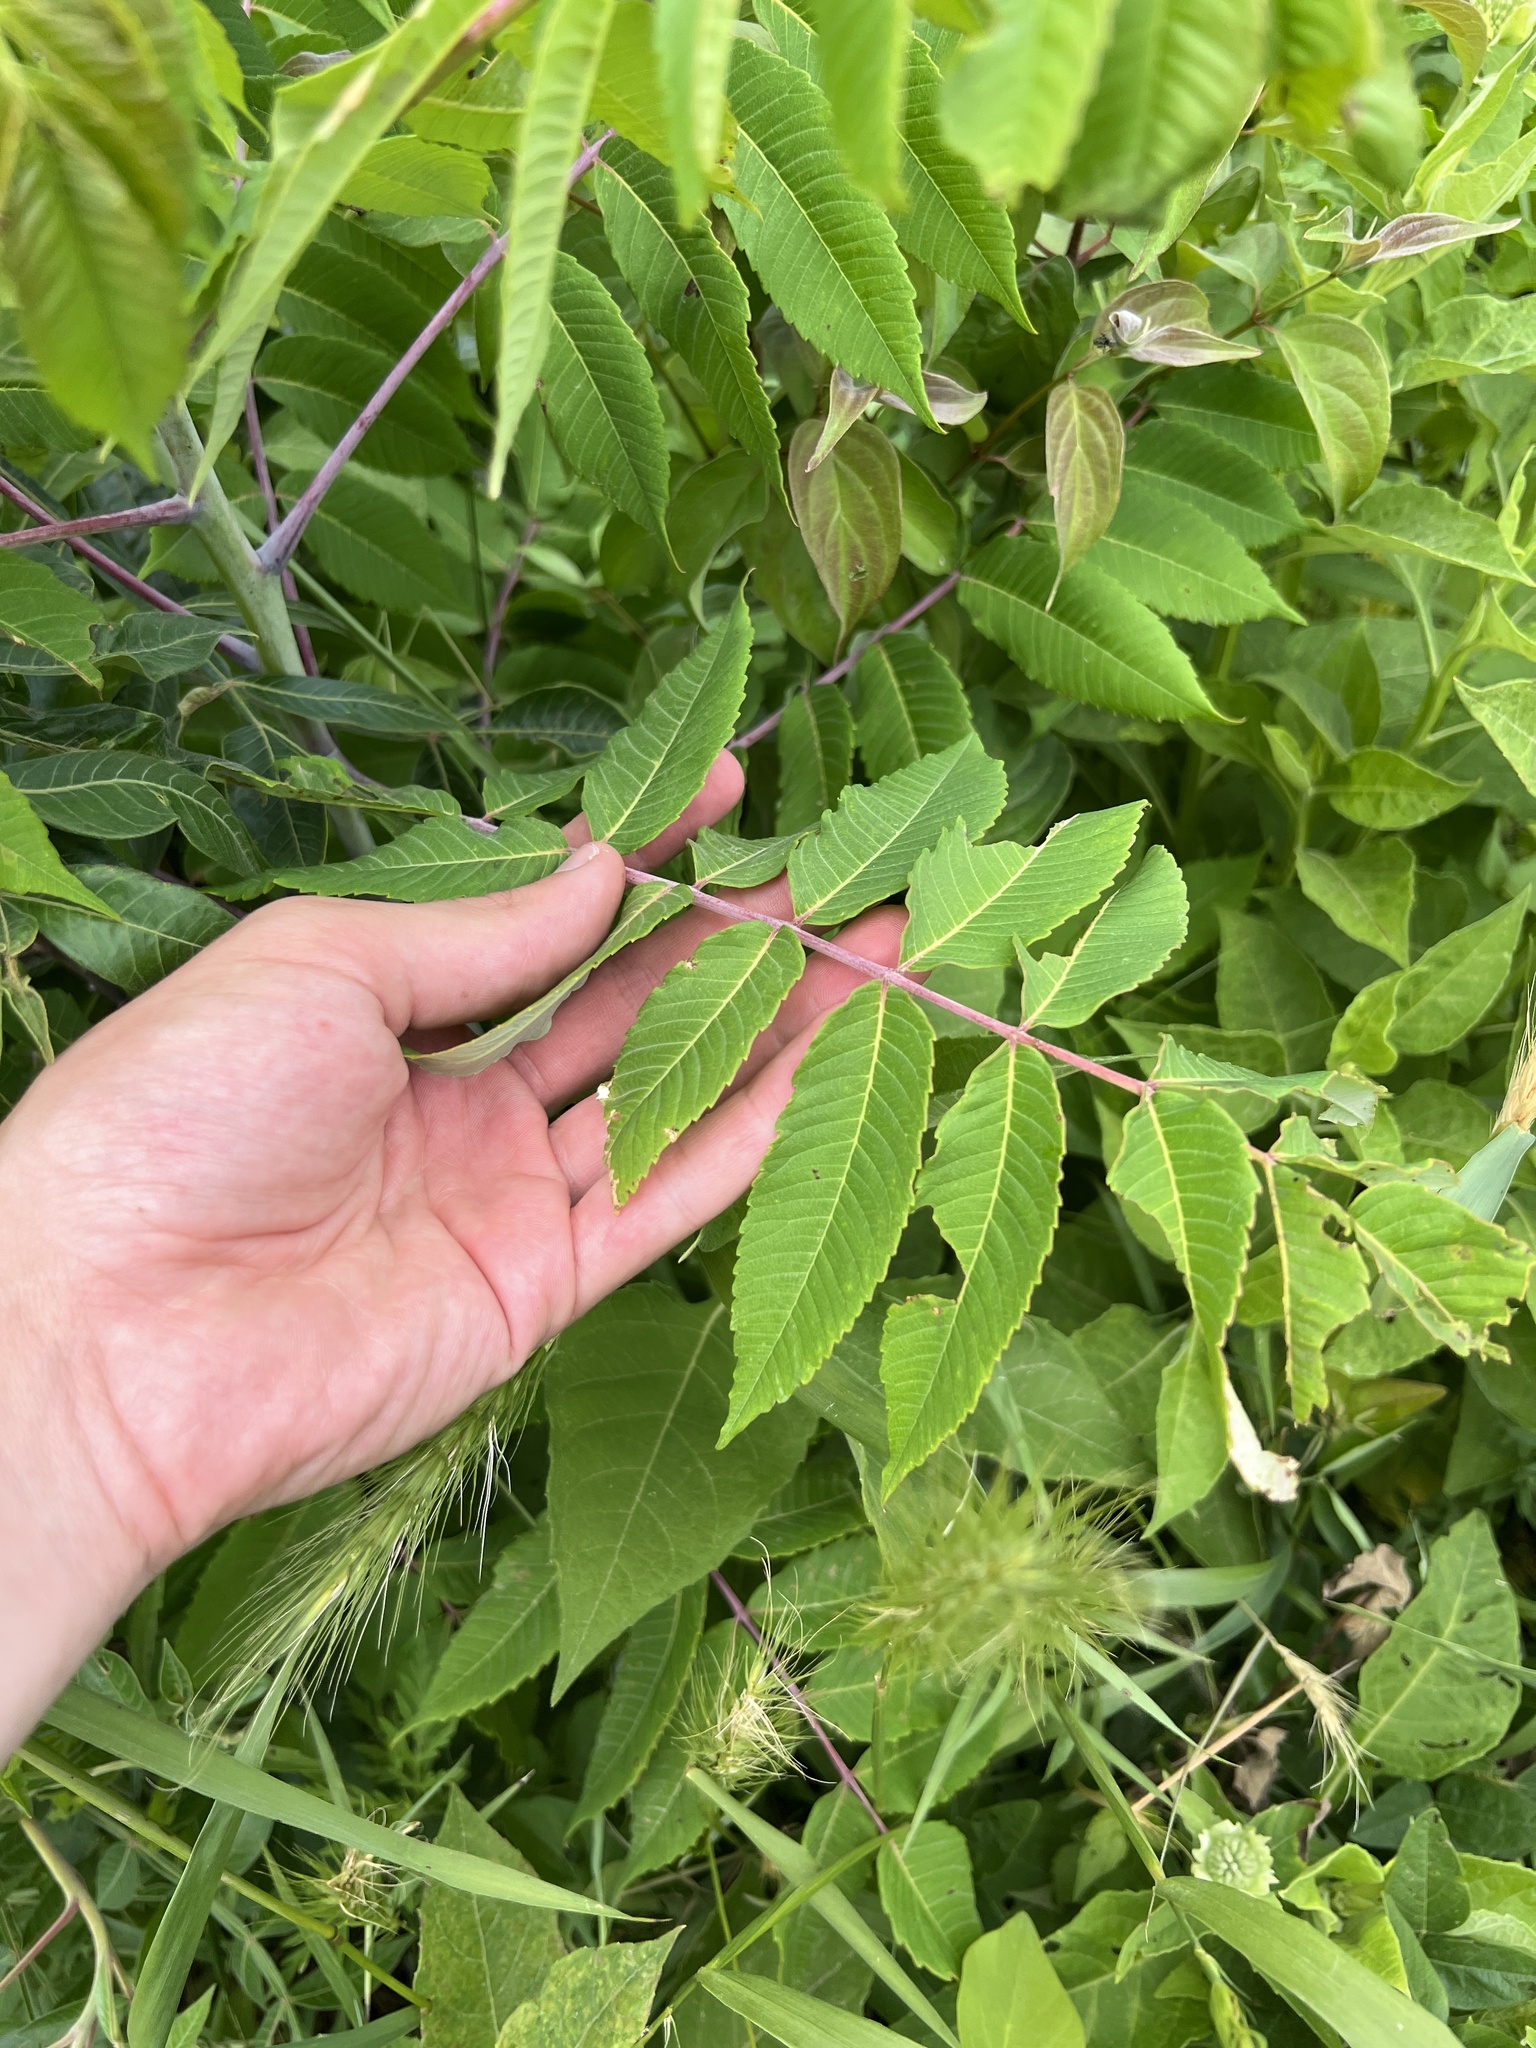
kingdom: Plantae
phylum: Tracheophyta
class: Magnoliopsida
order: Sapindales
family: Anacardiaceae
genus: Rhus
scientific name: Rhus glabra
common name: Scarlet sumac
